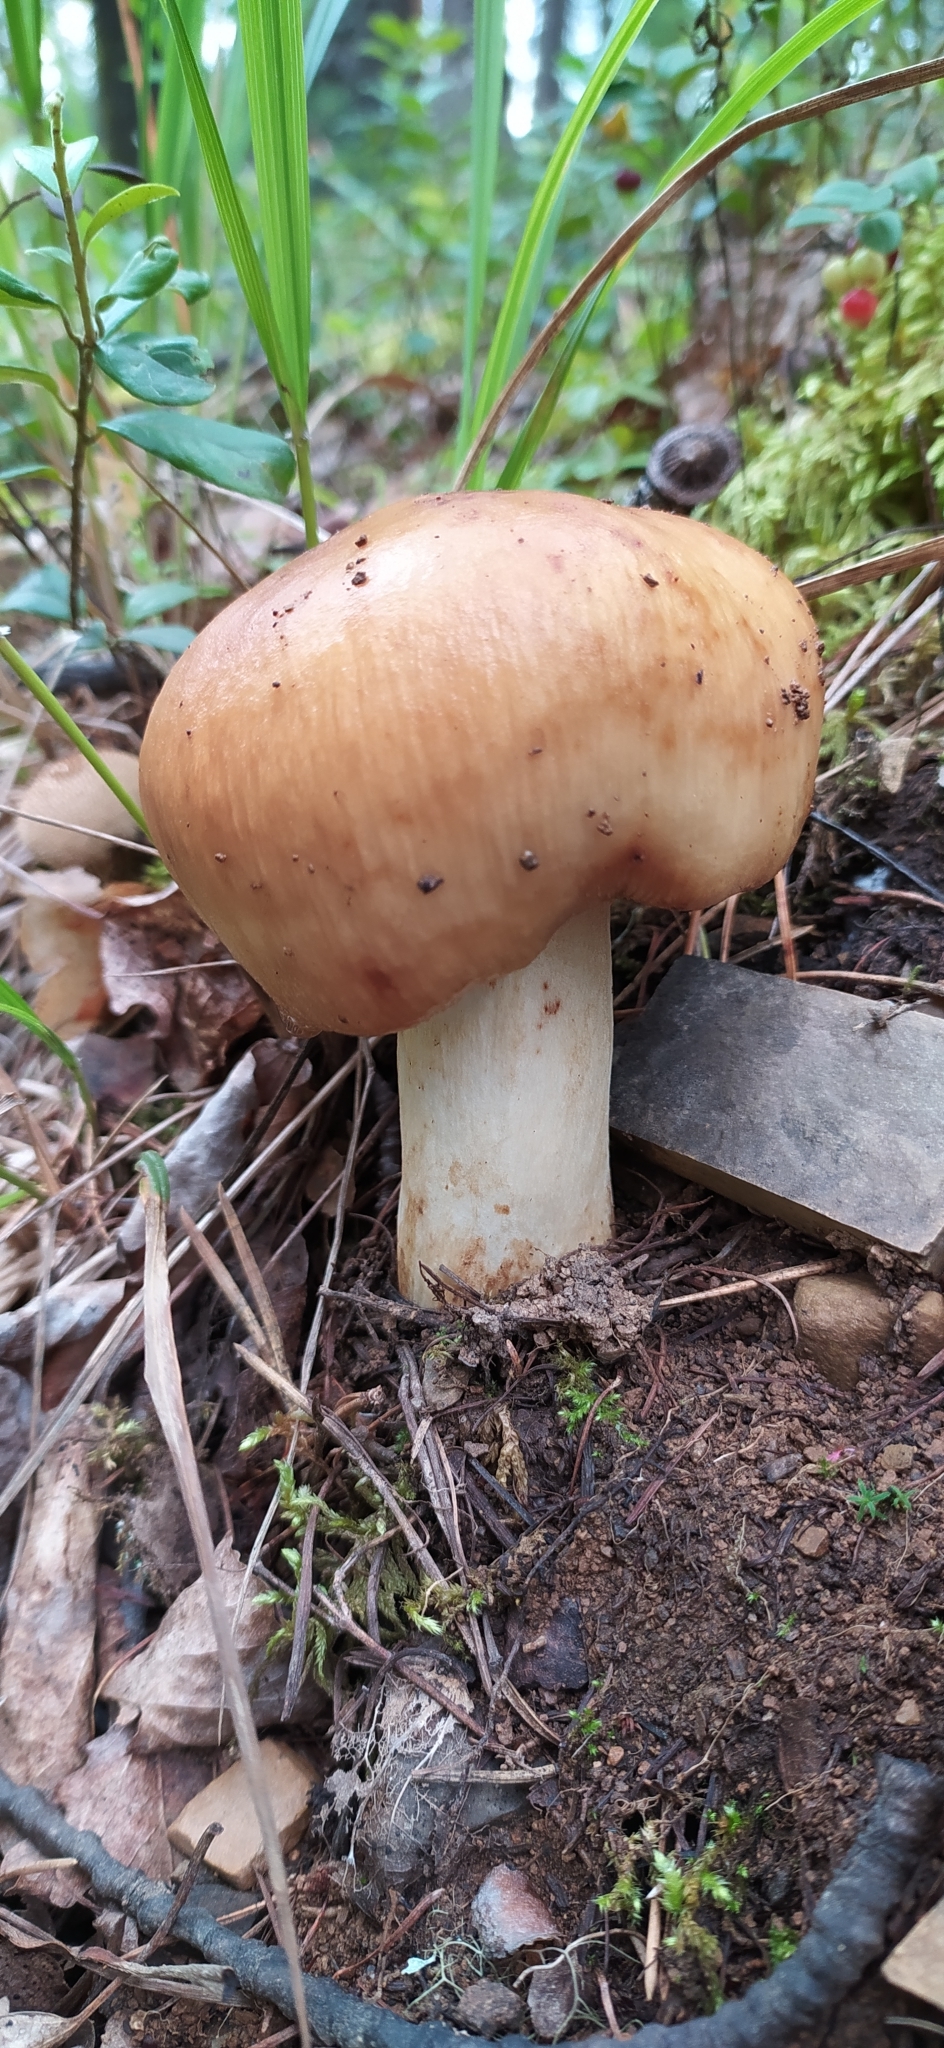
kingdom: Fungi
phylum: Basidiomycota
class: Agaricomycetes
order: Russulales
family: Russulaceae
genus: Russula
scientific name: Russula foetens
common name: Foetid russula
